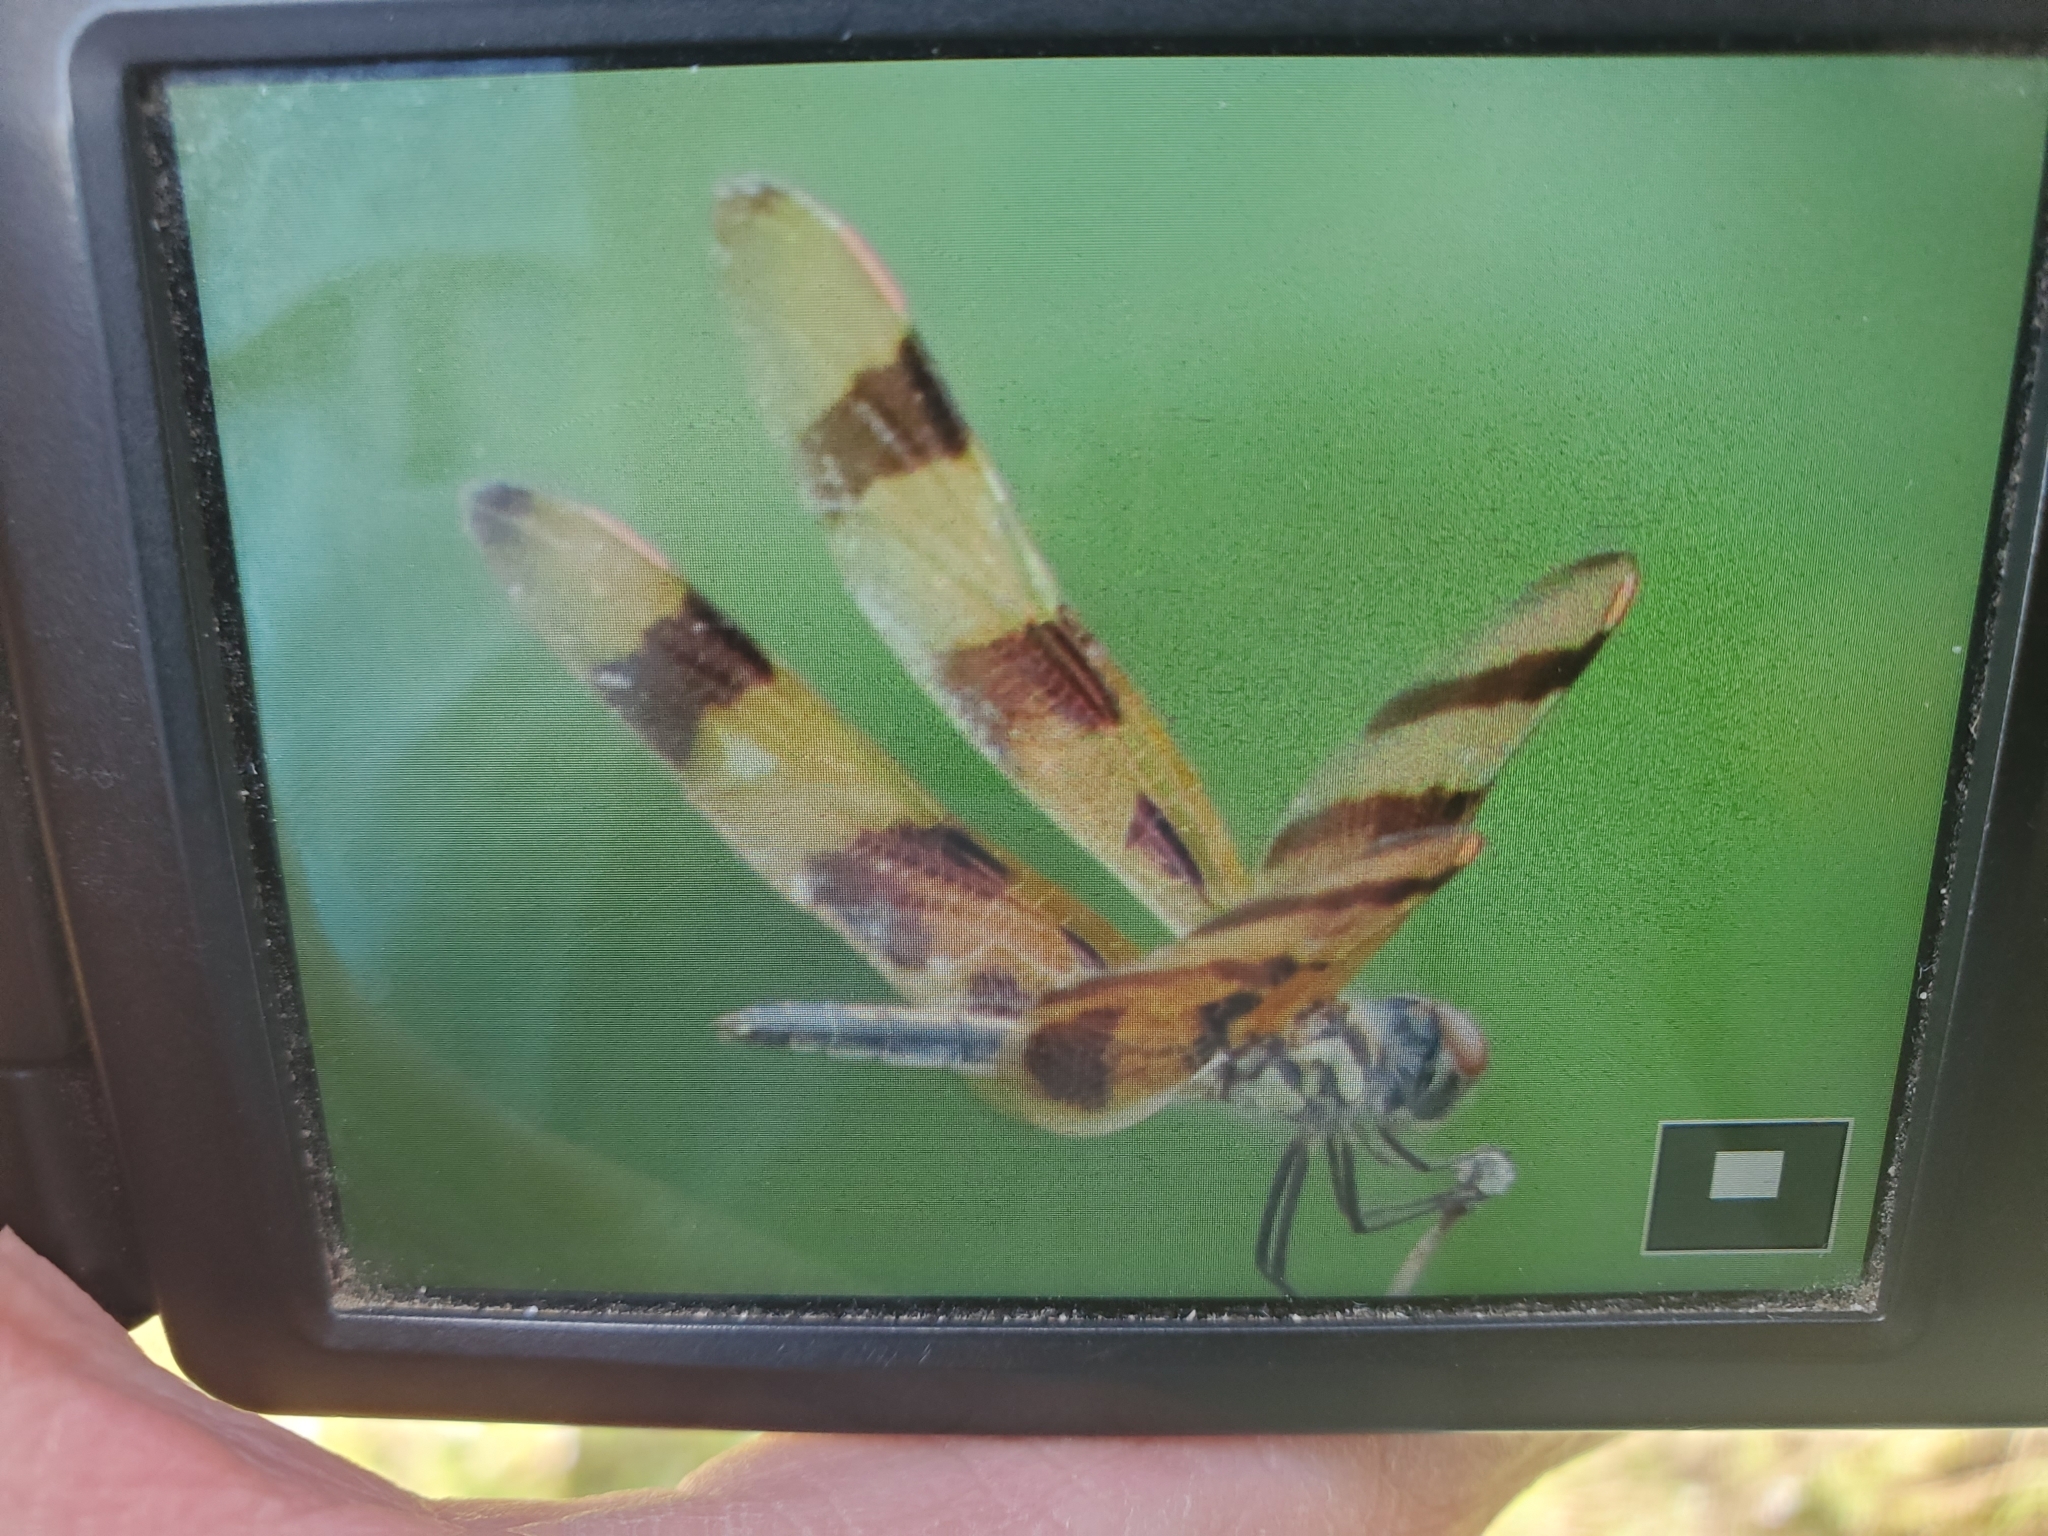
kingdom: Animalia
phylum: Arthropoda
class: Insecta
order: Odonata
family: Libellulidae
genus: Celithemis
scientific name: Celithemis eponina
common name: Halloween pennant
